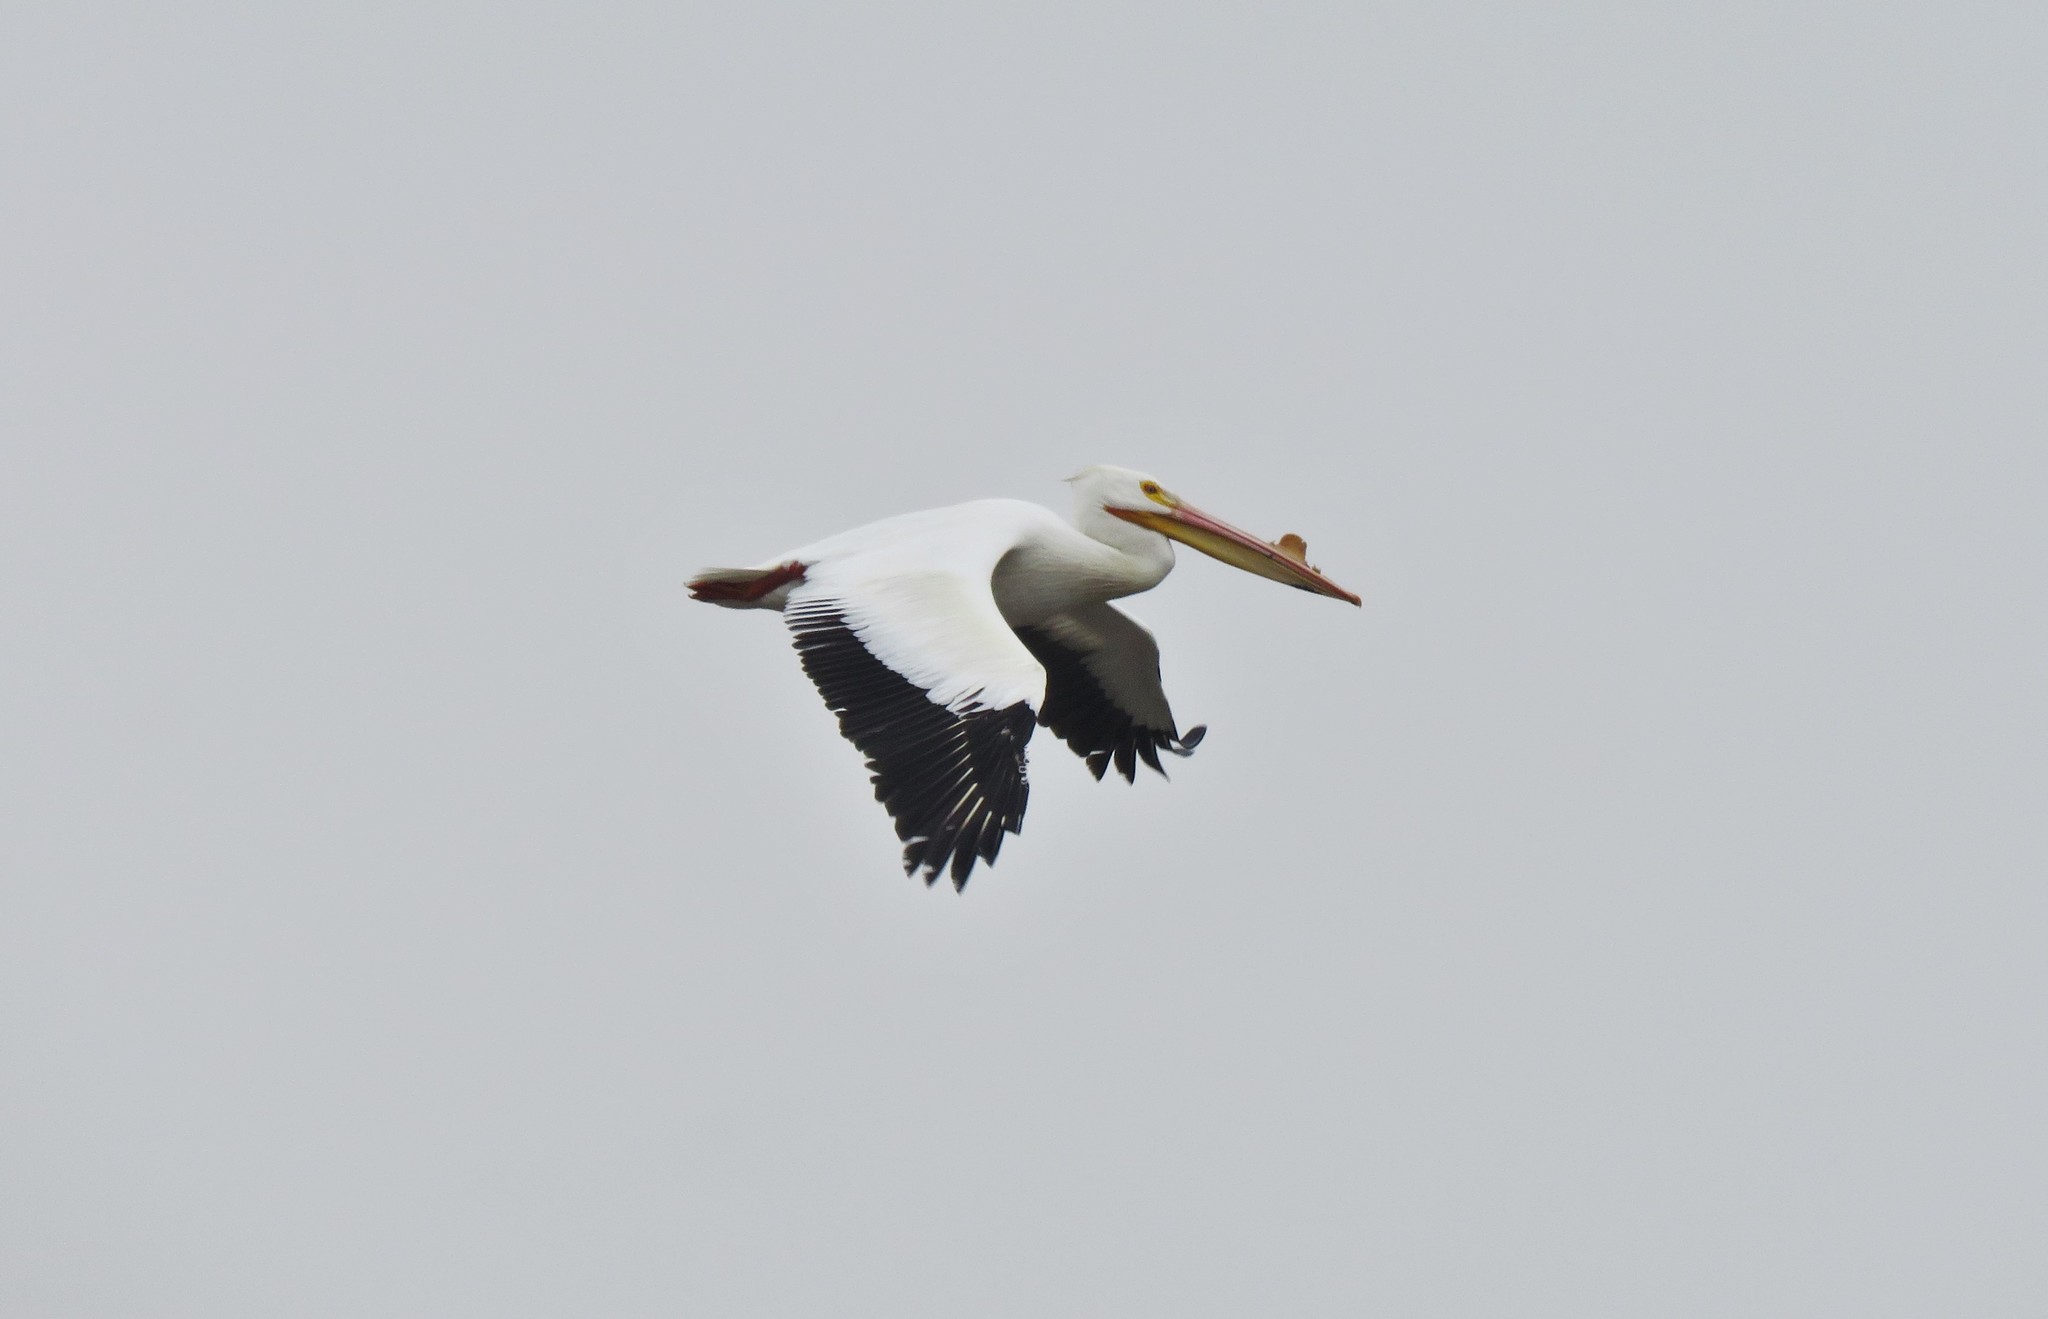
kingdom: Animalia
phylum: Chordata
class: Aves
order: Pelecaniformes
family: Pelecanidae
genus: Pelecanus
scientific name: Pelecanus erythrorhynchos
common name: American white pelican
